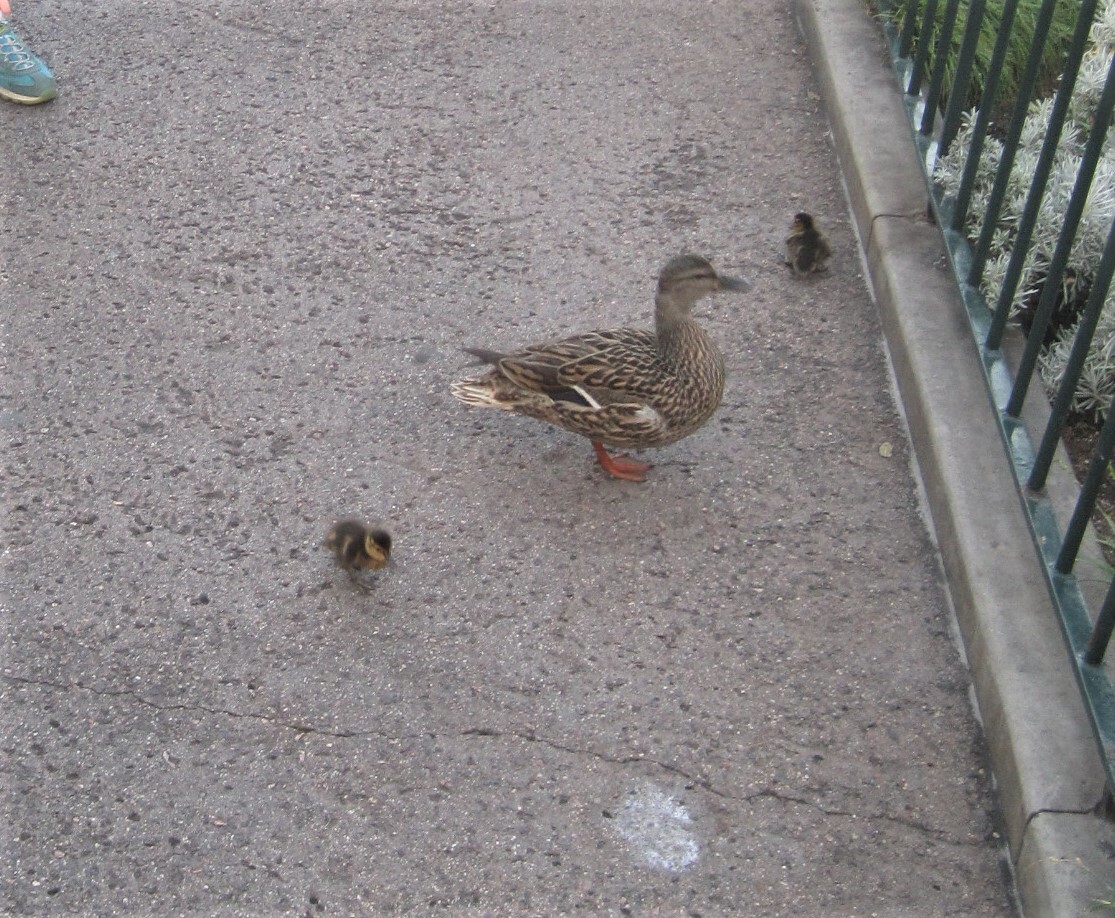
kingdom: Animalia
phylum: Chordata
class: Aves
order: Anseriformes
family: Anatidae
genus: Anas
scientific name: Anas platyrhynchos
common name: Mallard
